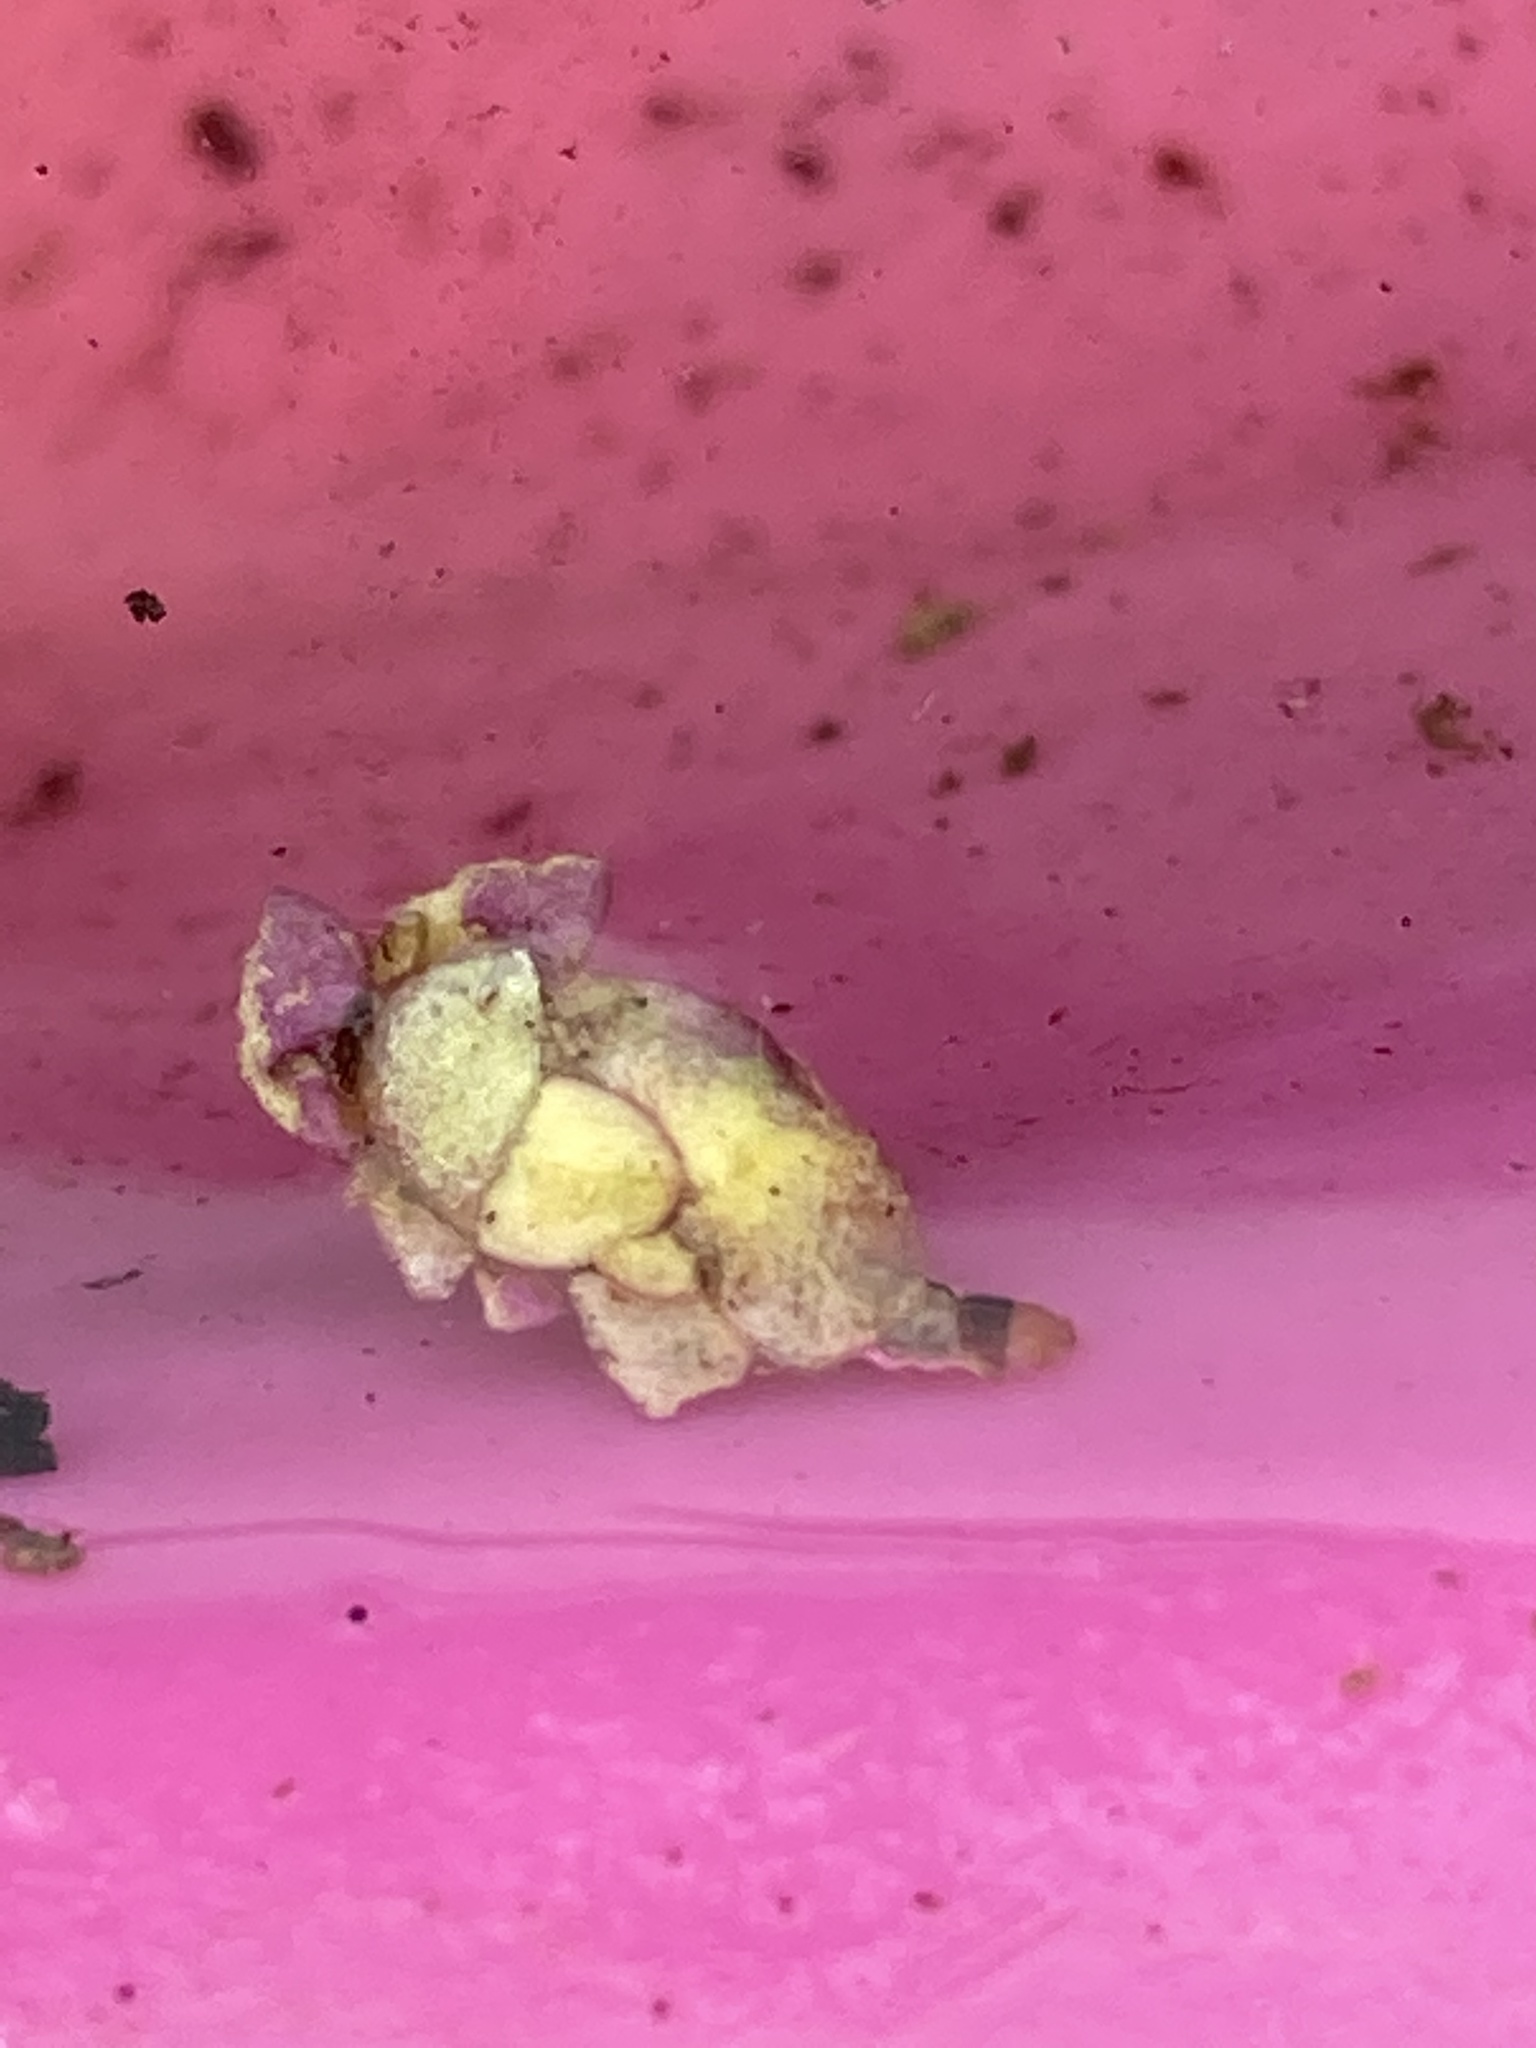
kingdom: Animalia
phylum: Arthropoda
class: Insecta
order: Lepidoptera
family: Crambidae
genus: Elophila
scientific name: Elophila obliteralis
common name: Waterlily leafcutter moth
